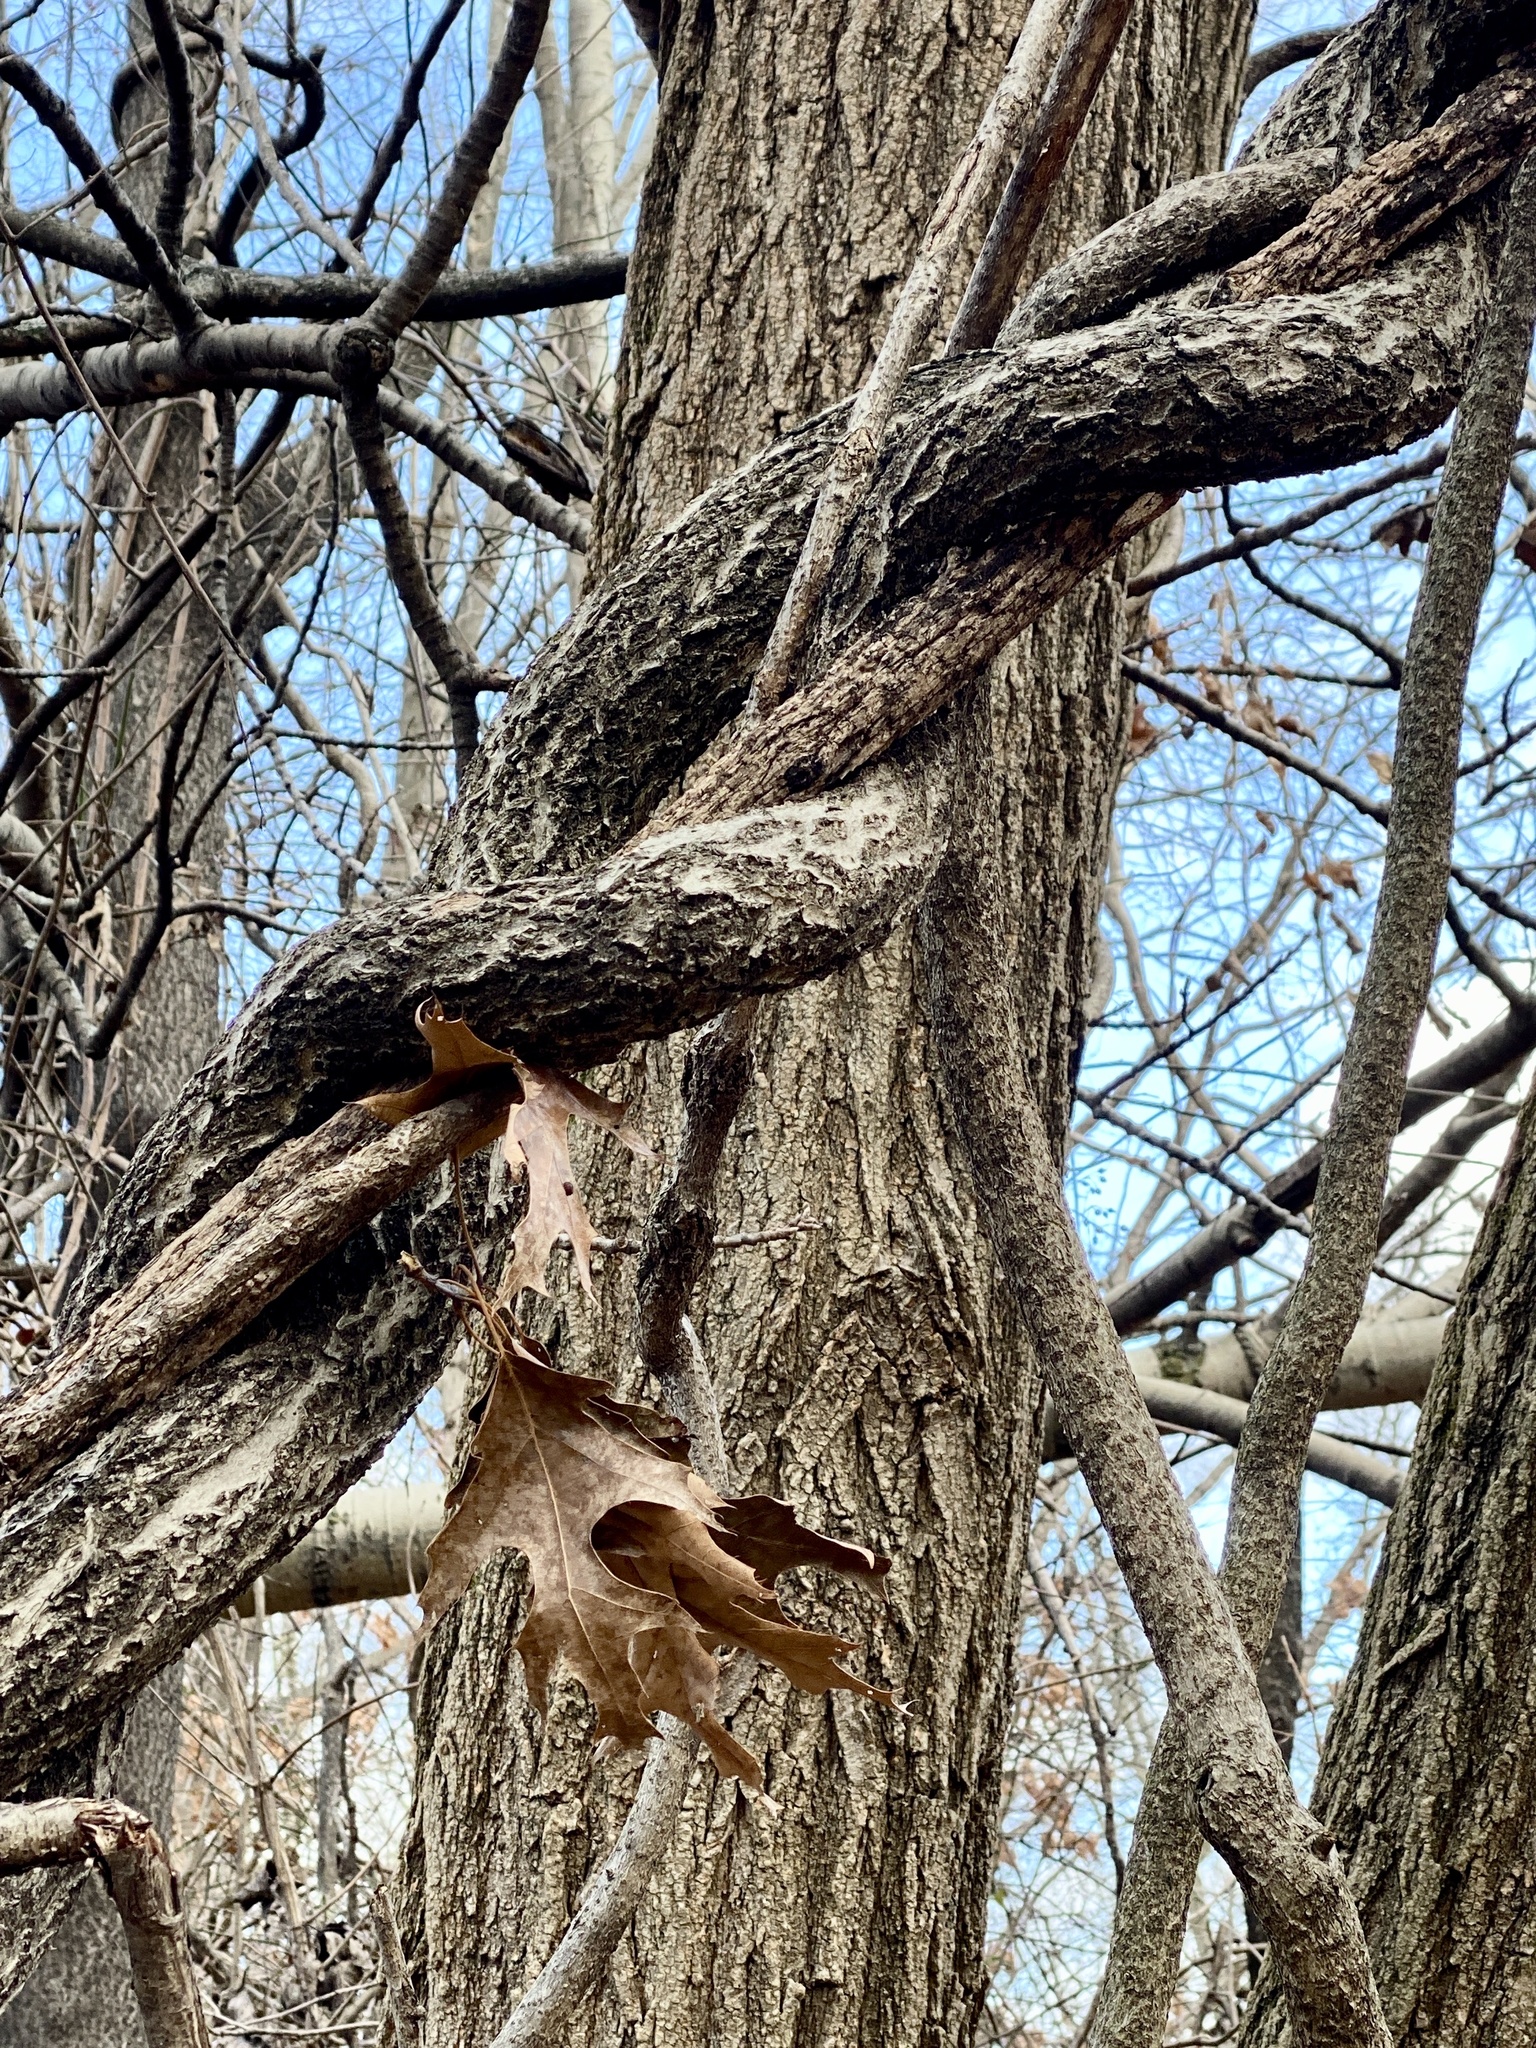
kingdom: Plantae
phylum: Tracheophyta
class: Magnoliopsida
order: Celastrales
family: Celastraceae
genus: Celastrus
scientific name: Celastrus orbiculatus
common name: Oriental bittersweet
